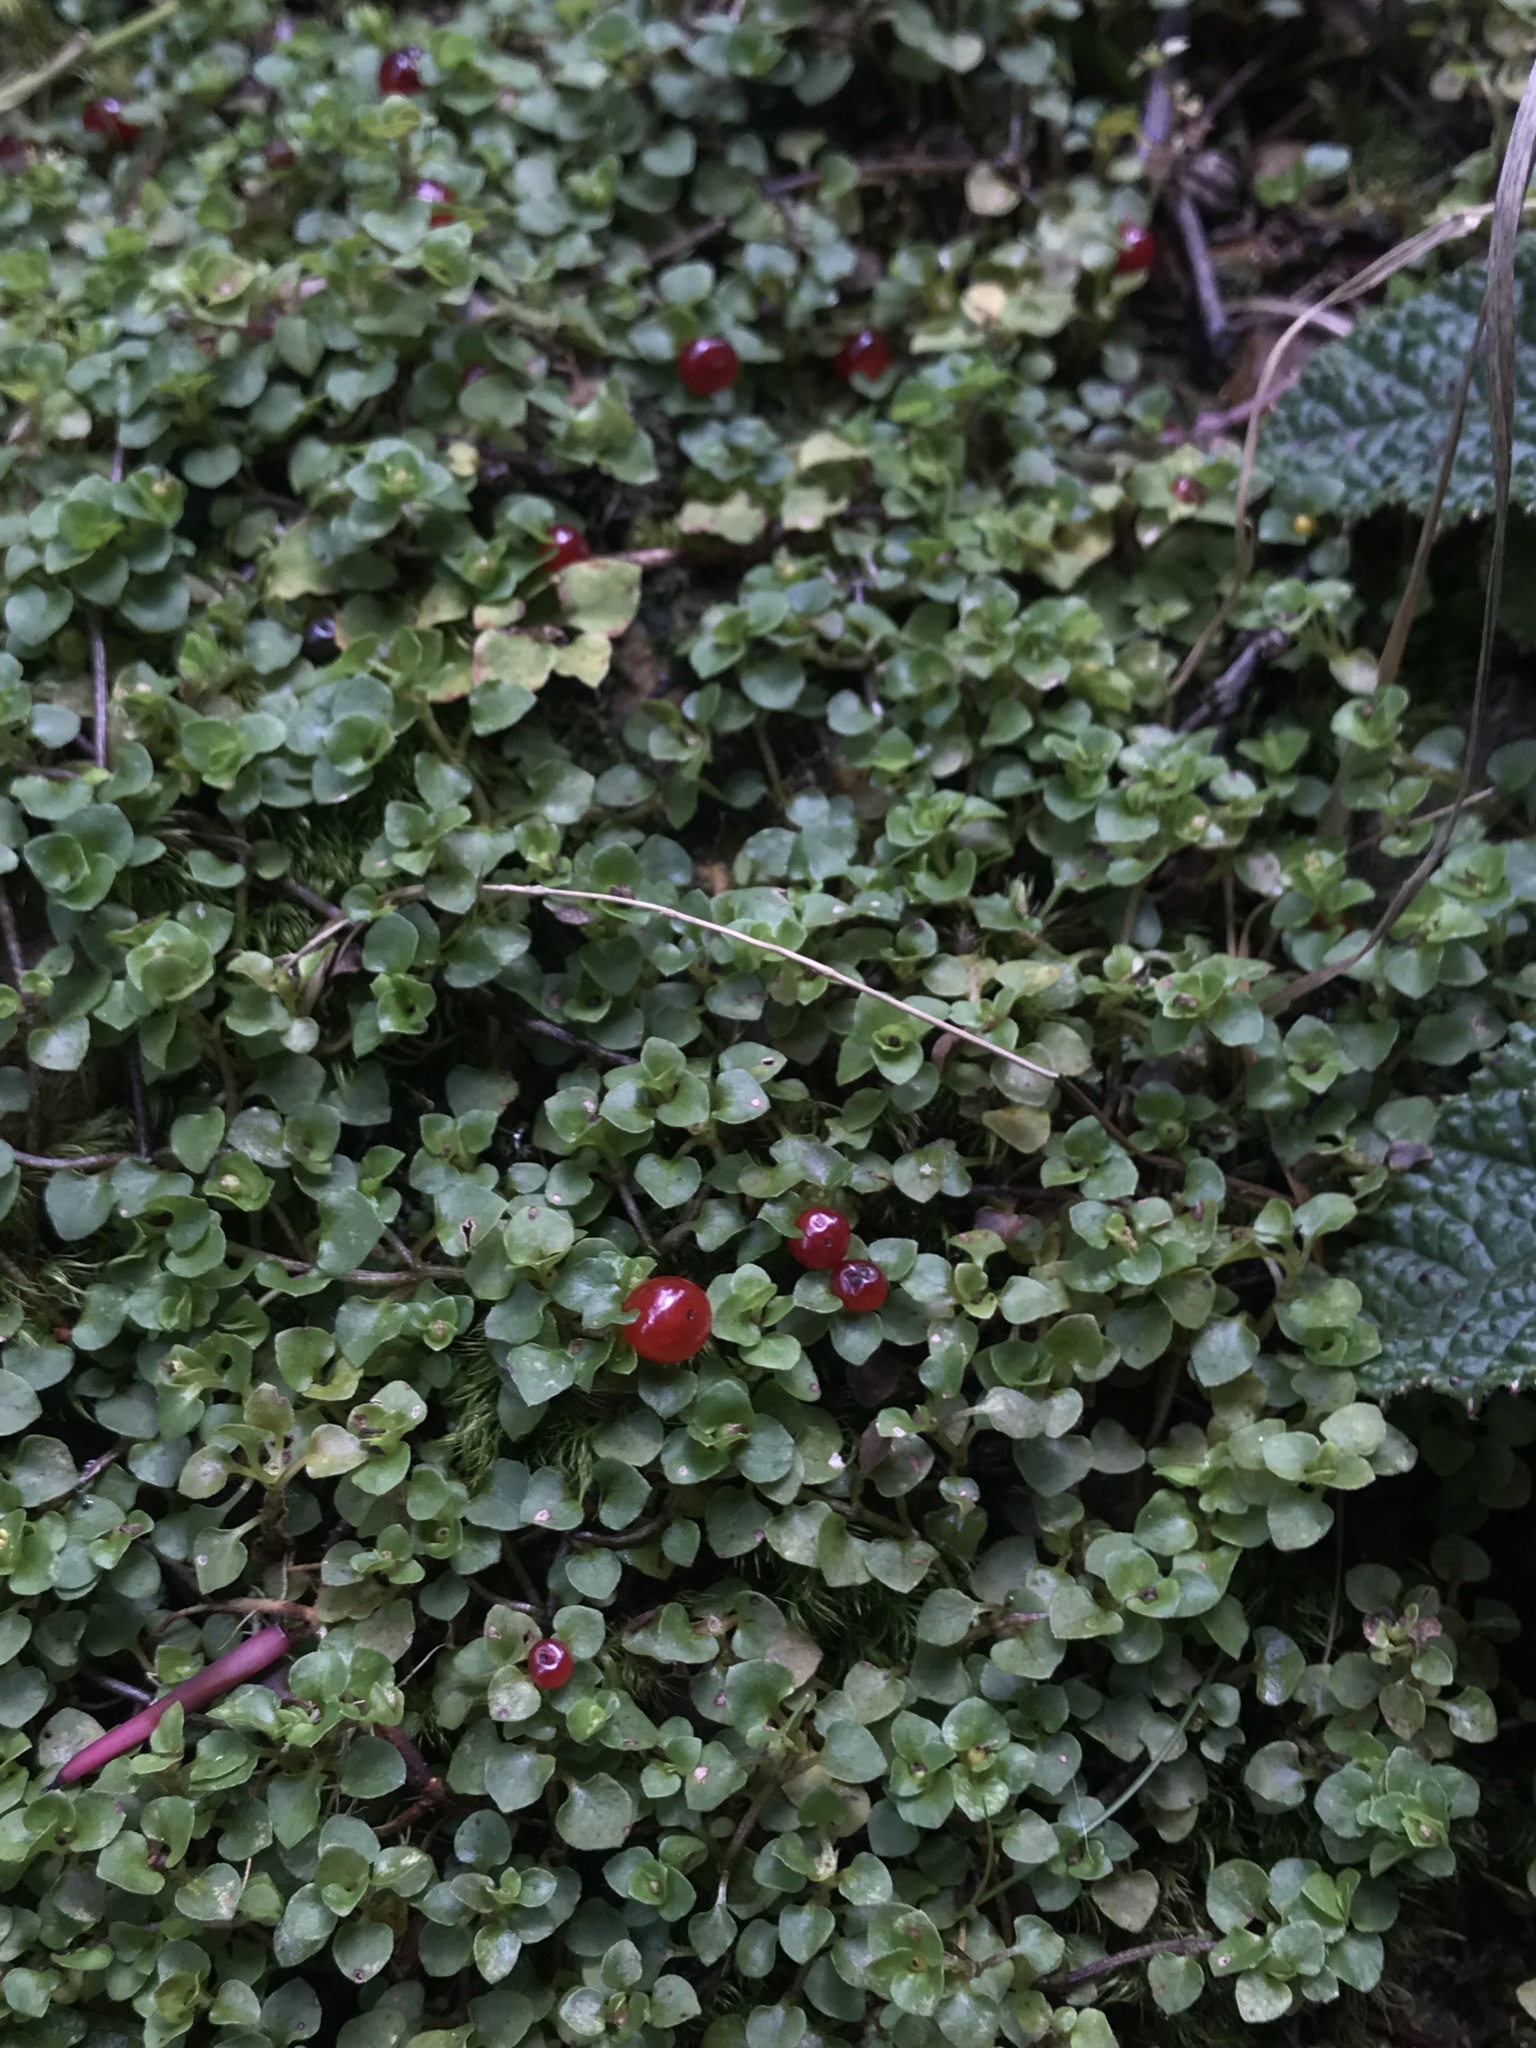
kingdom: Plantae
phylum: Tracheophyta
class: Magnoliopsida
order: Gentianales
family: Rubiaceae
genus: Nertera
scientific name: Nertera granadensis
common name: Beadplant
